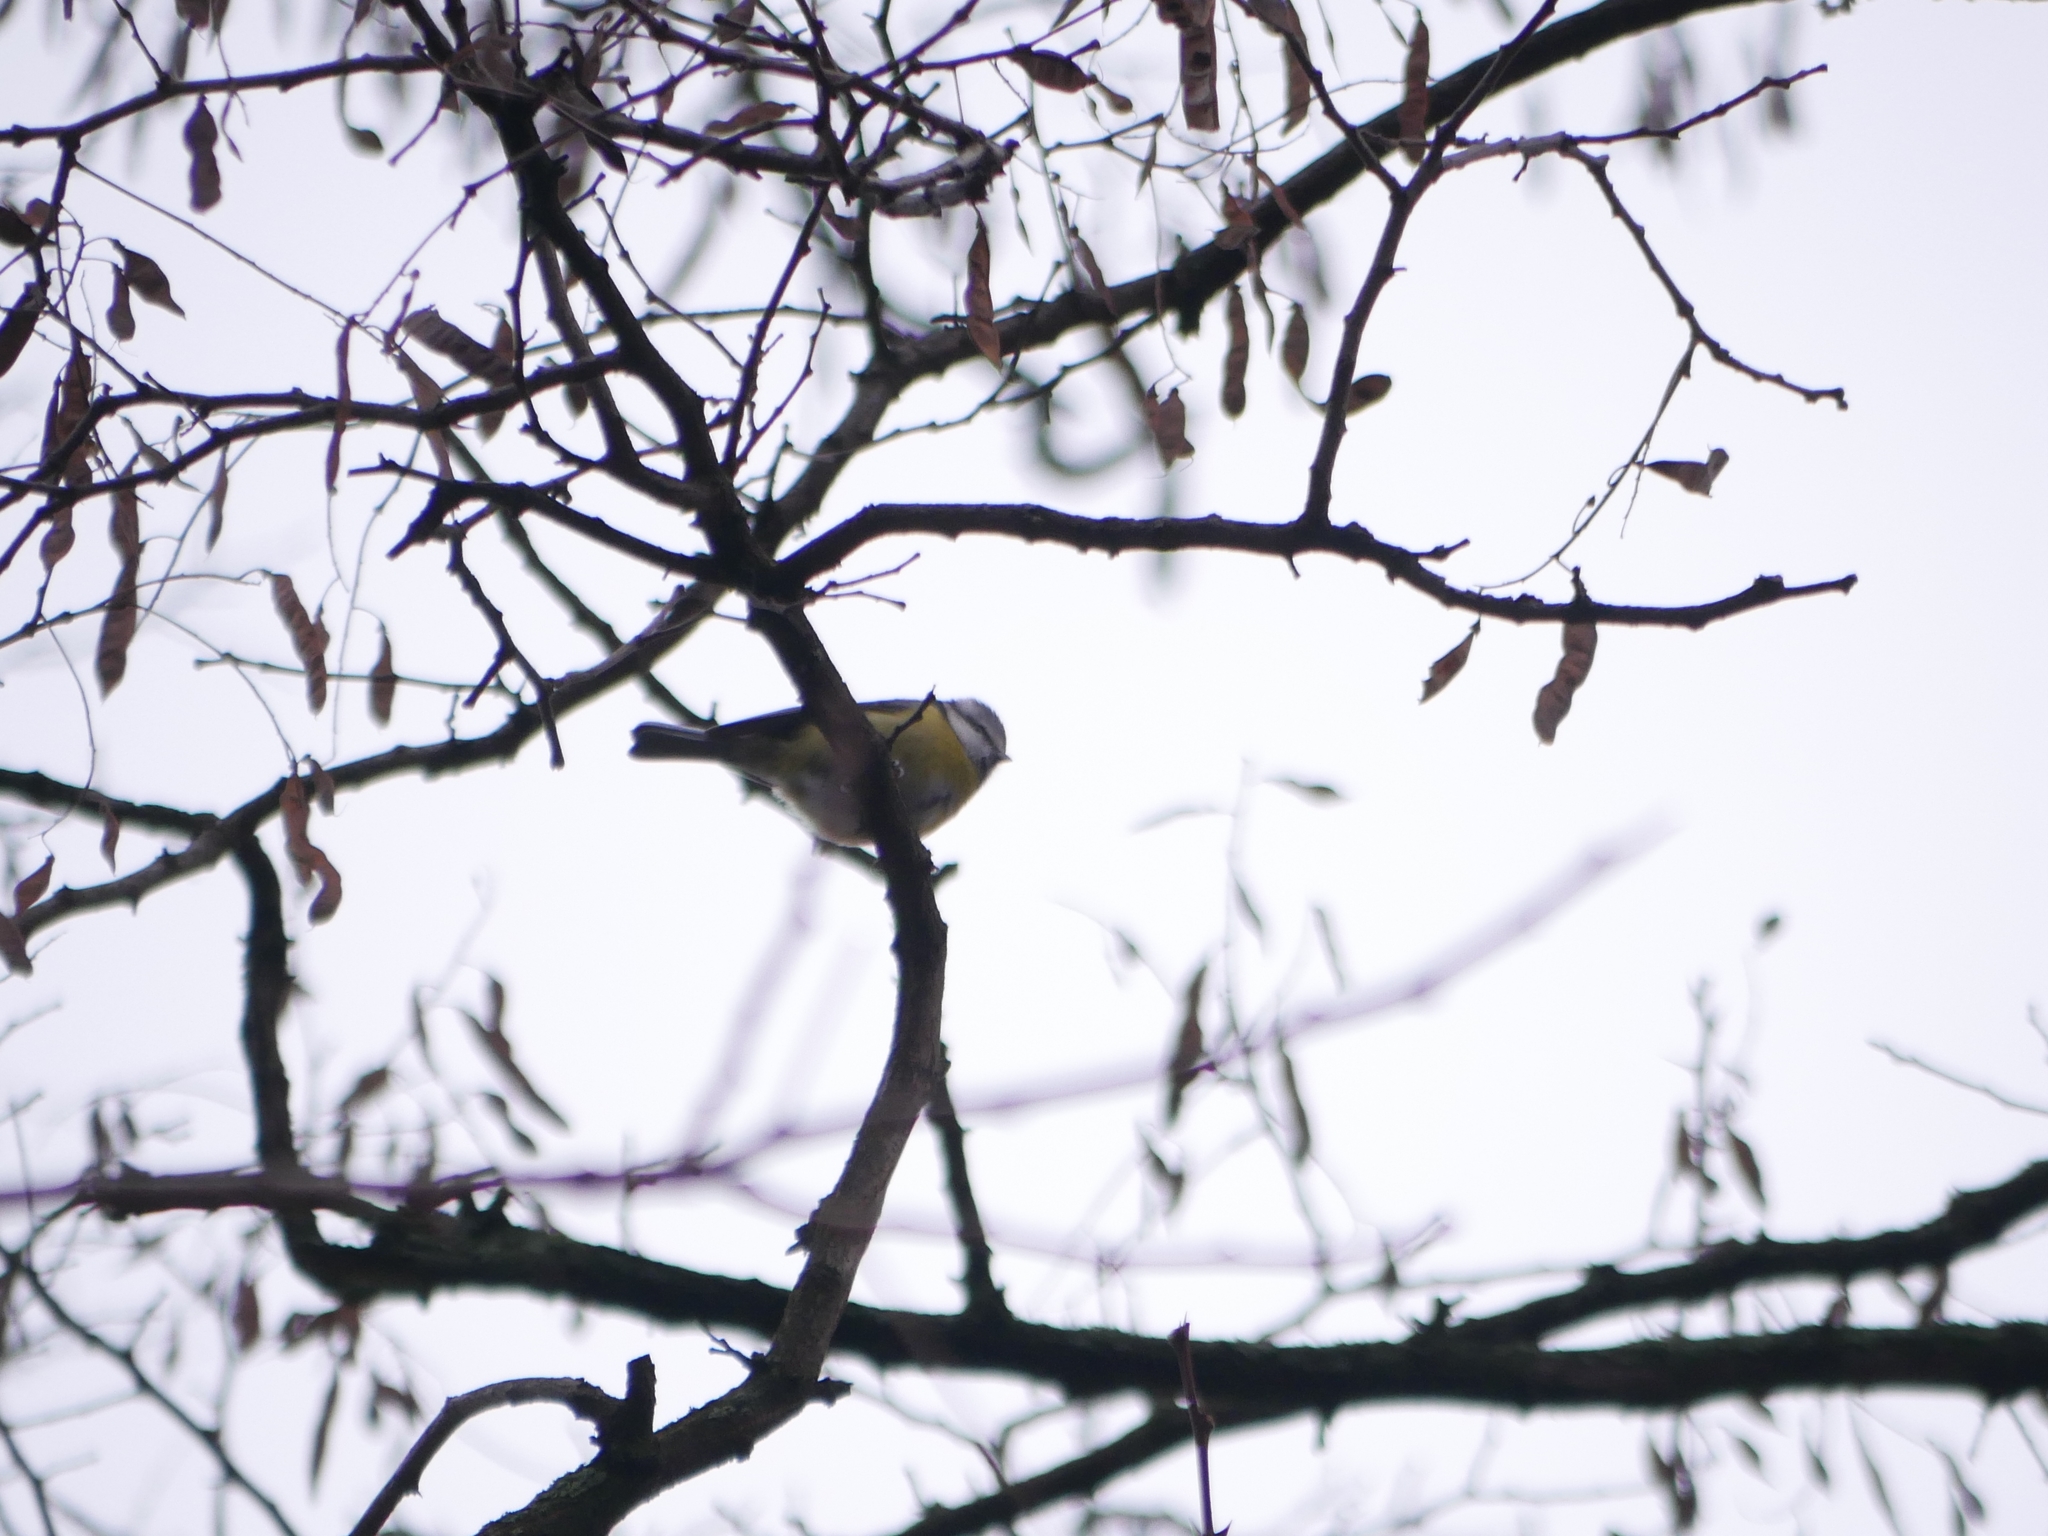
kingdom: Animalia
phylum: Chordata
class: Aves
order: Passeriformes
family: Paridae
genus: Cyanistes
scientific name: Cyanistes caeruleus
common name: Eurasian blue tit
